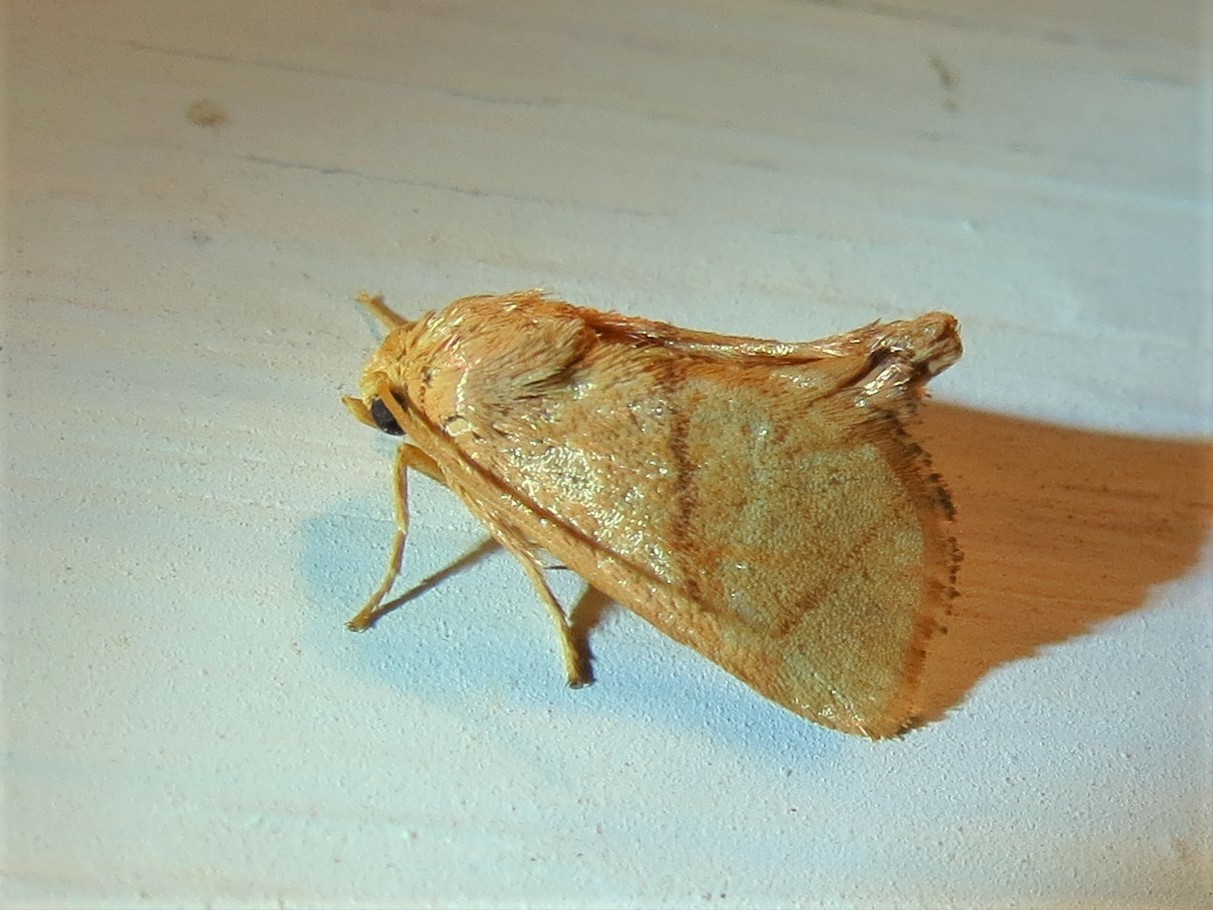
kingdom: Animalia
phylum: Arthropoda
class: Insecta
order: Lepidoptera
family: Limacodidae
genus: Apoda
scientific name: Apoda y-inversa
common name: Yellow-collared slug moth
